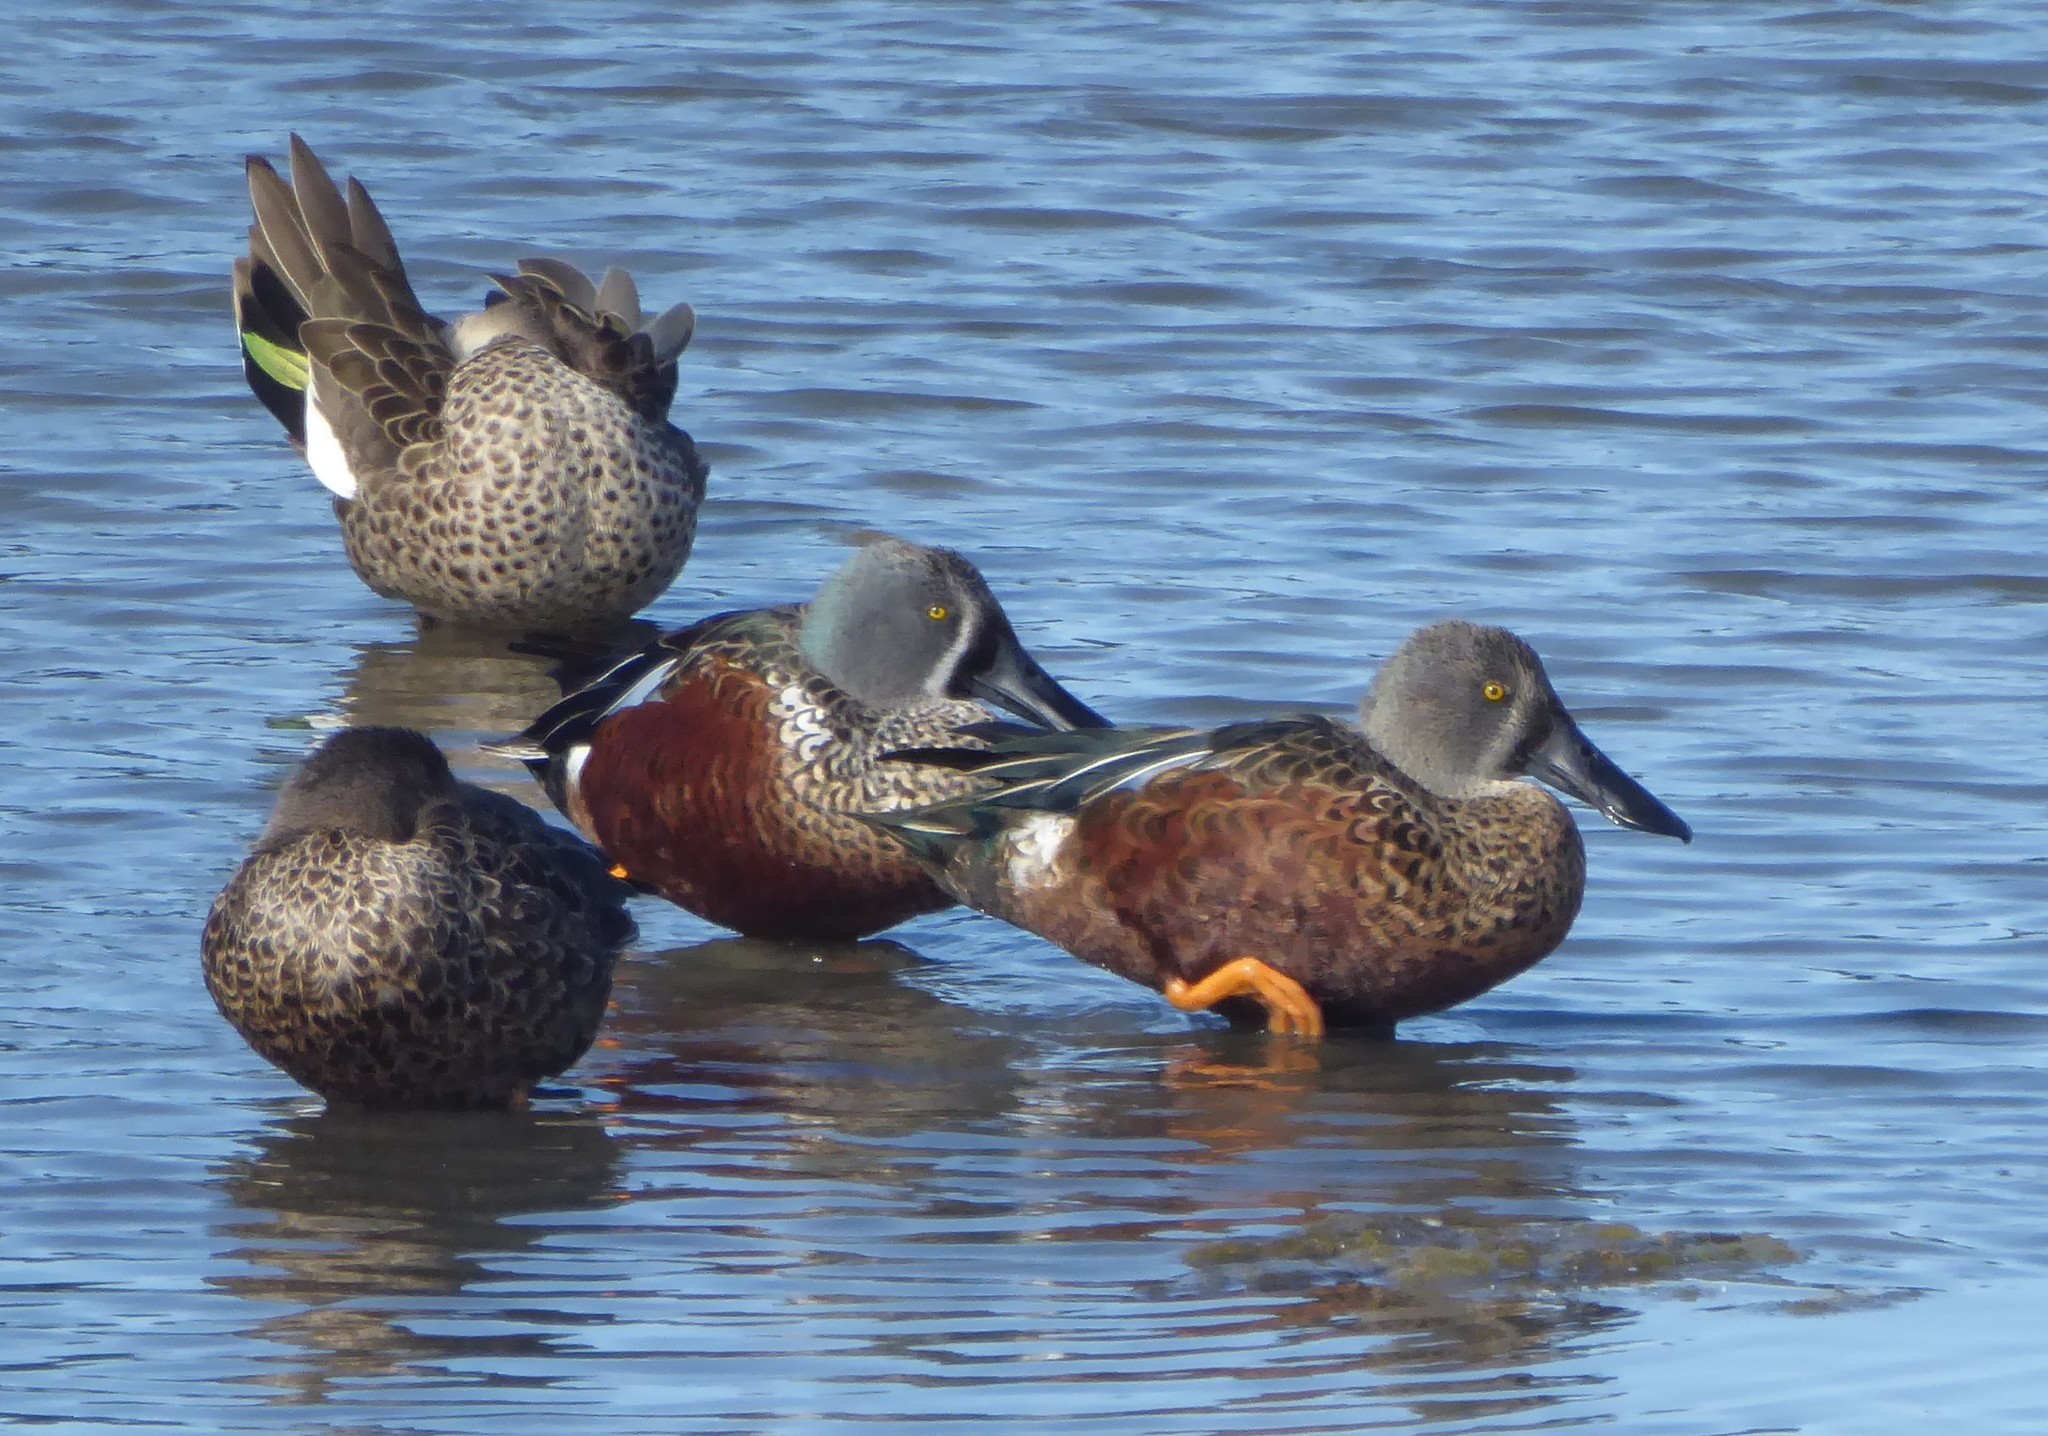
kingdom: Animalia
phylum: Chordata
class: Aves
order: Anseriformes
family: Anatidae
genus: Spatula
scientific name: Spatula rhynchotis
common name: Australian shoveler
